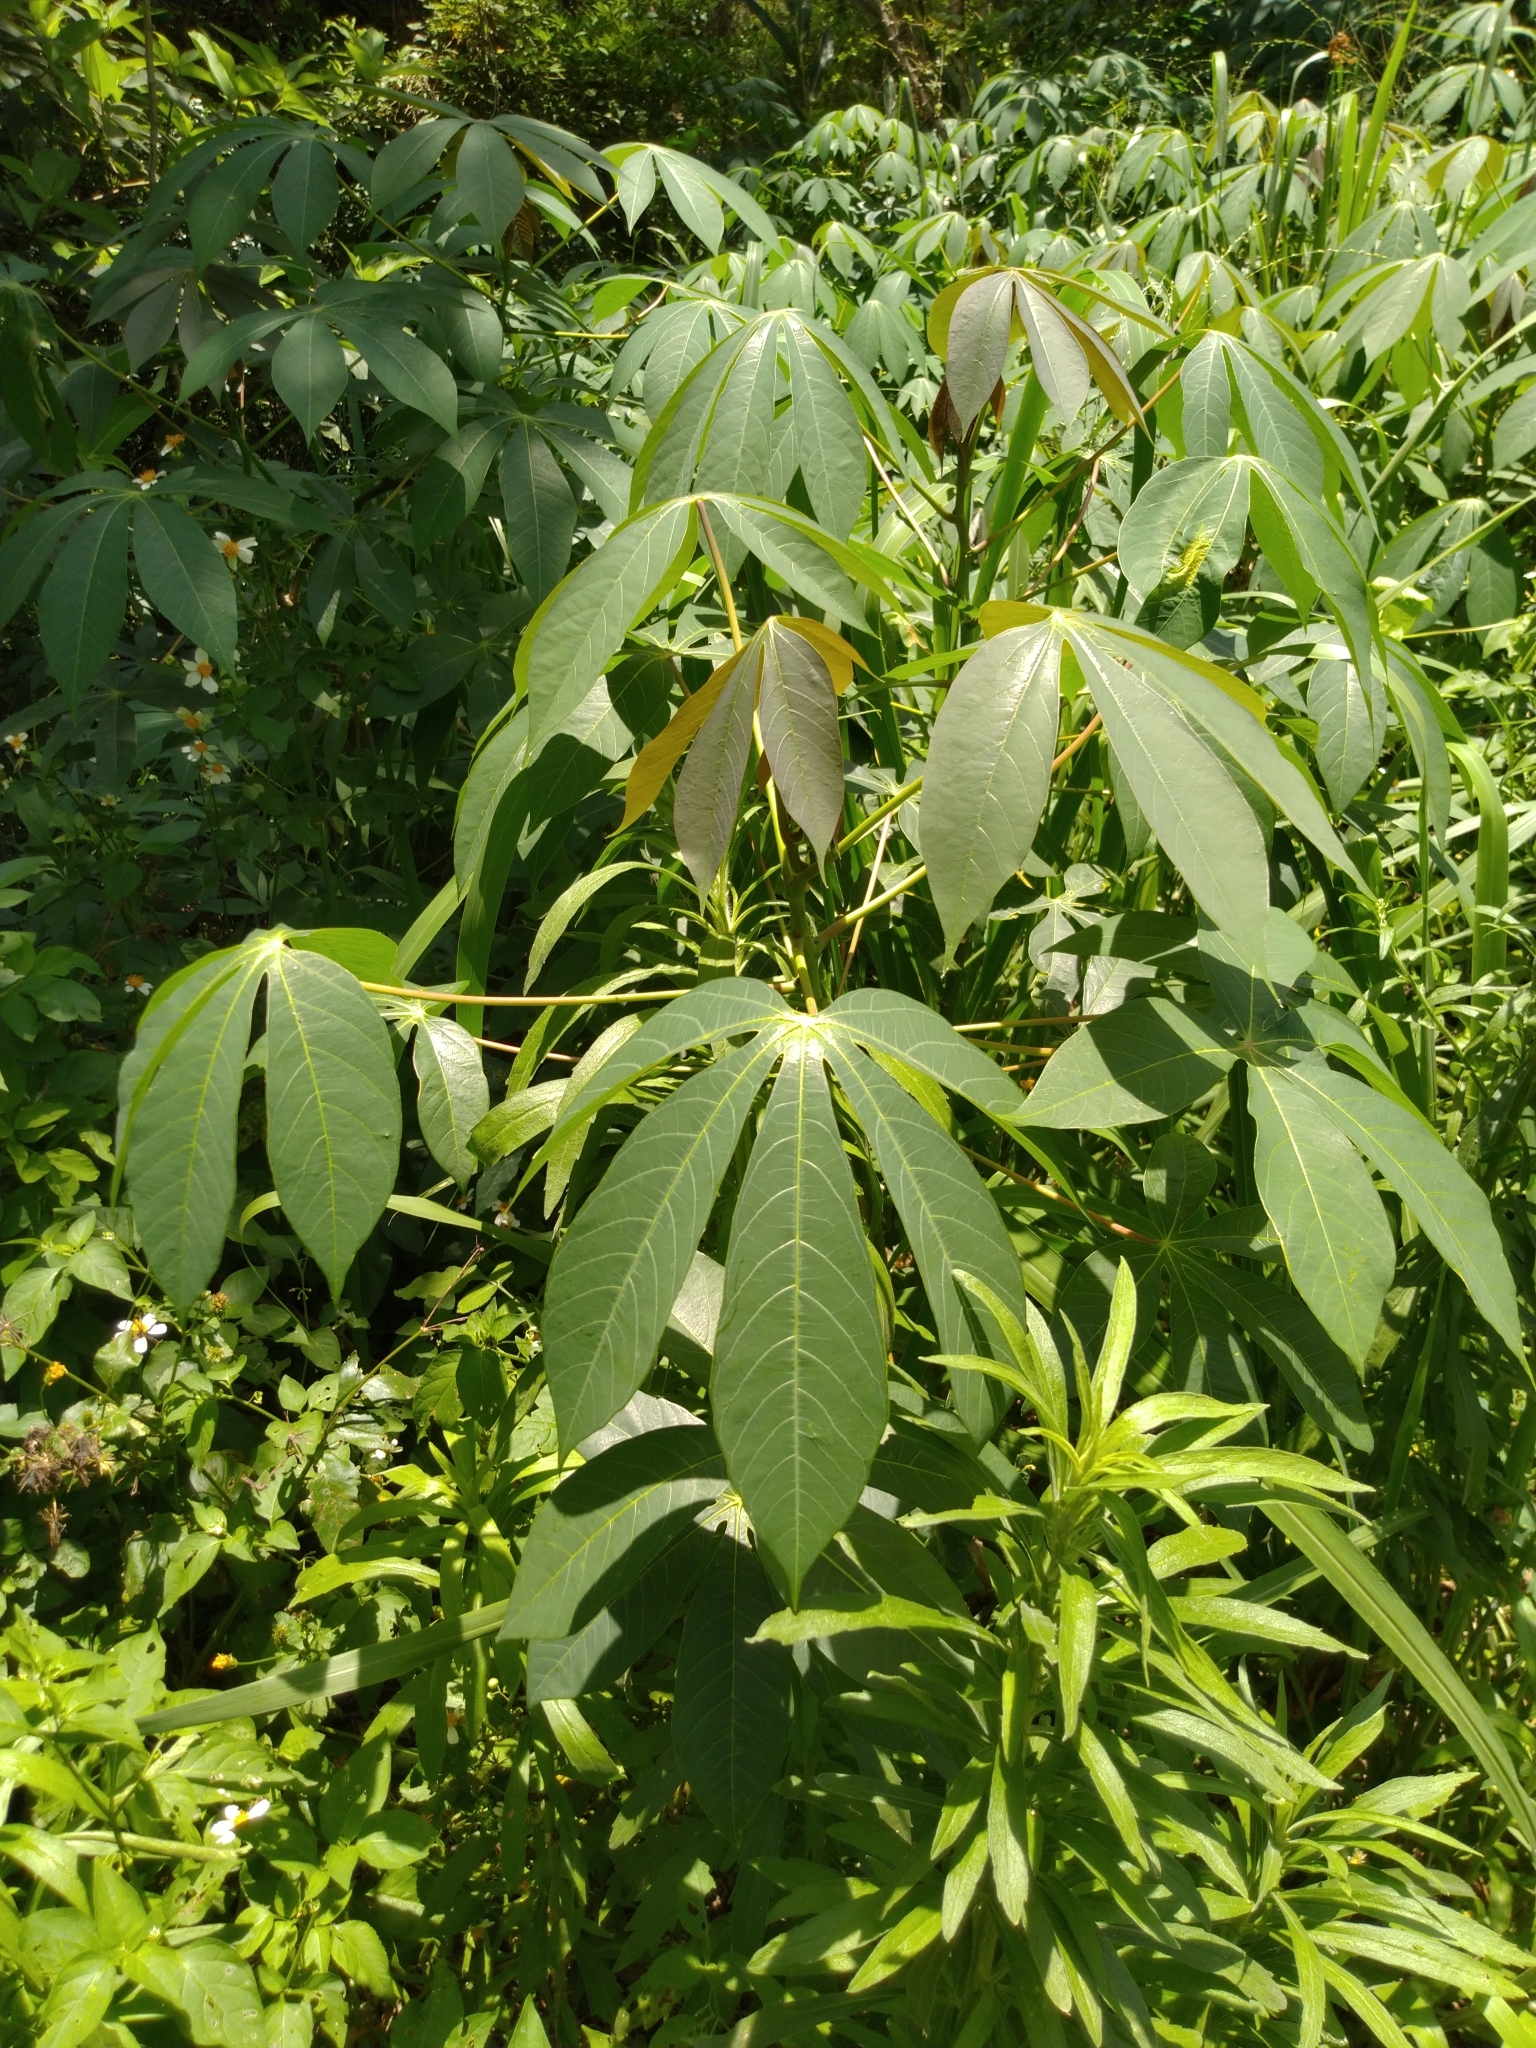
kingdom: Plantae
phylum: Tracheophyta
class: Magnoliopsida
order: Malpighiales
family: Euphorbiaceae
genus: Manihot
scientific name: Manihot esculenta
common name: Cassava
